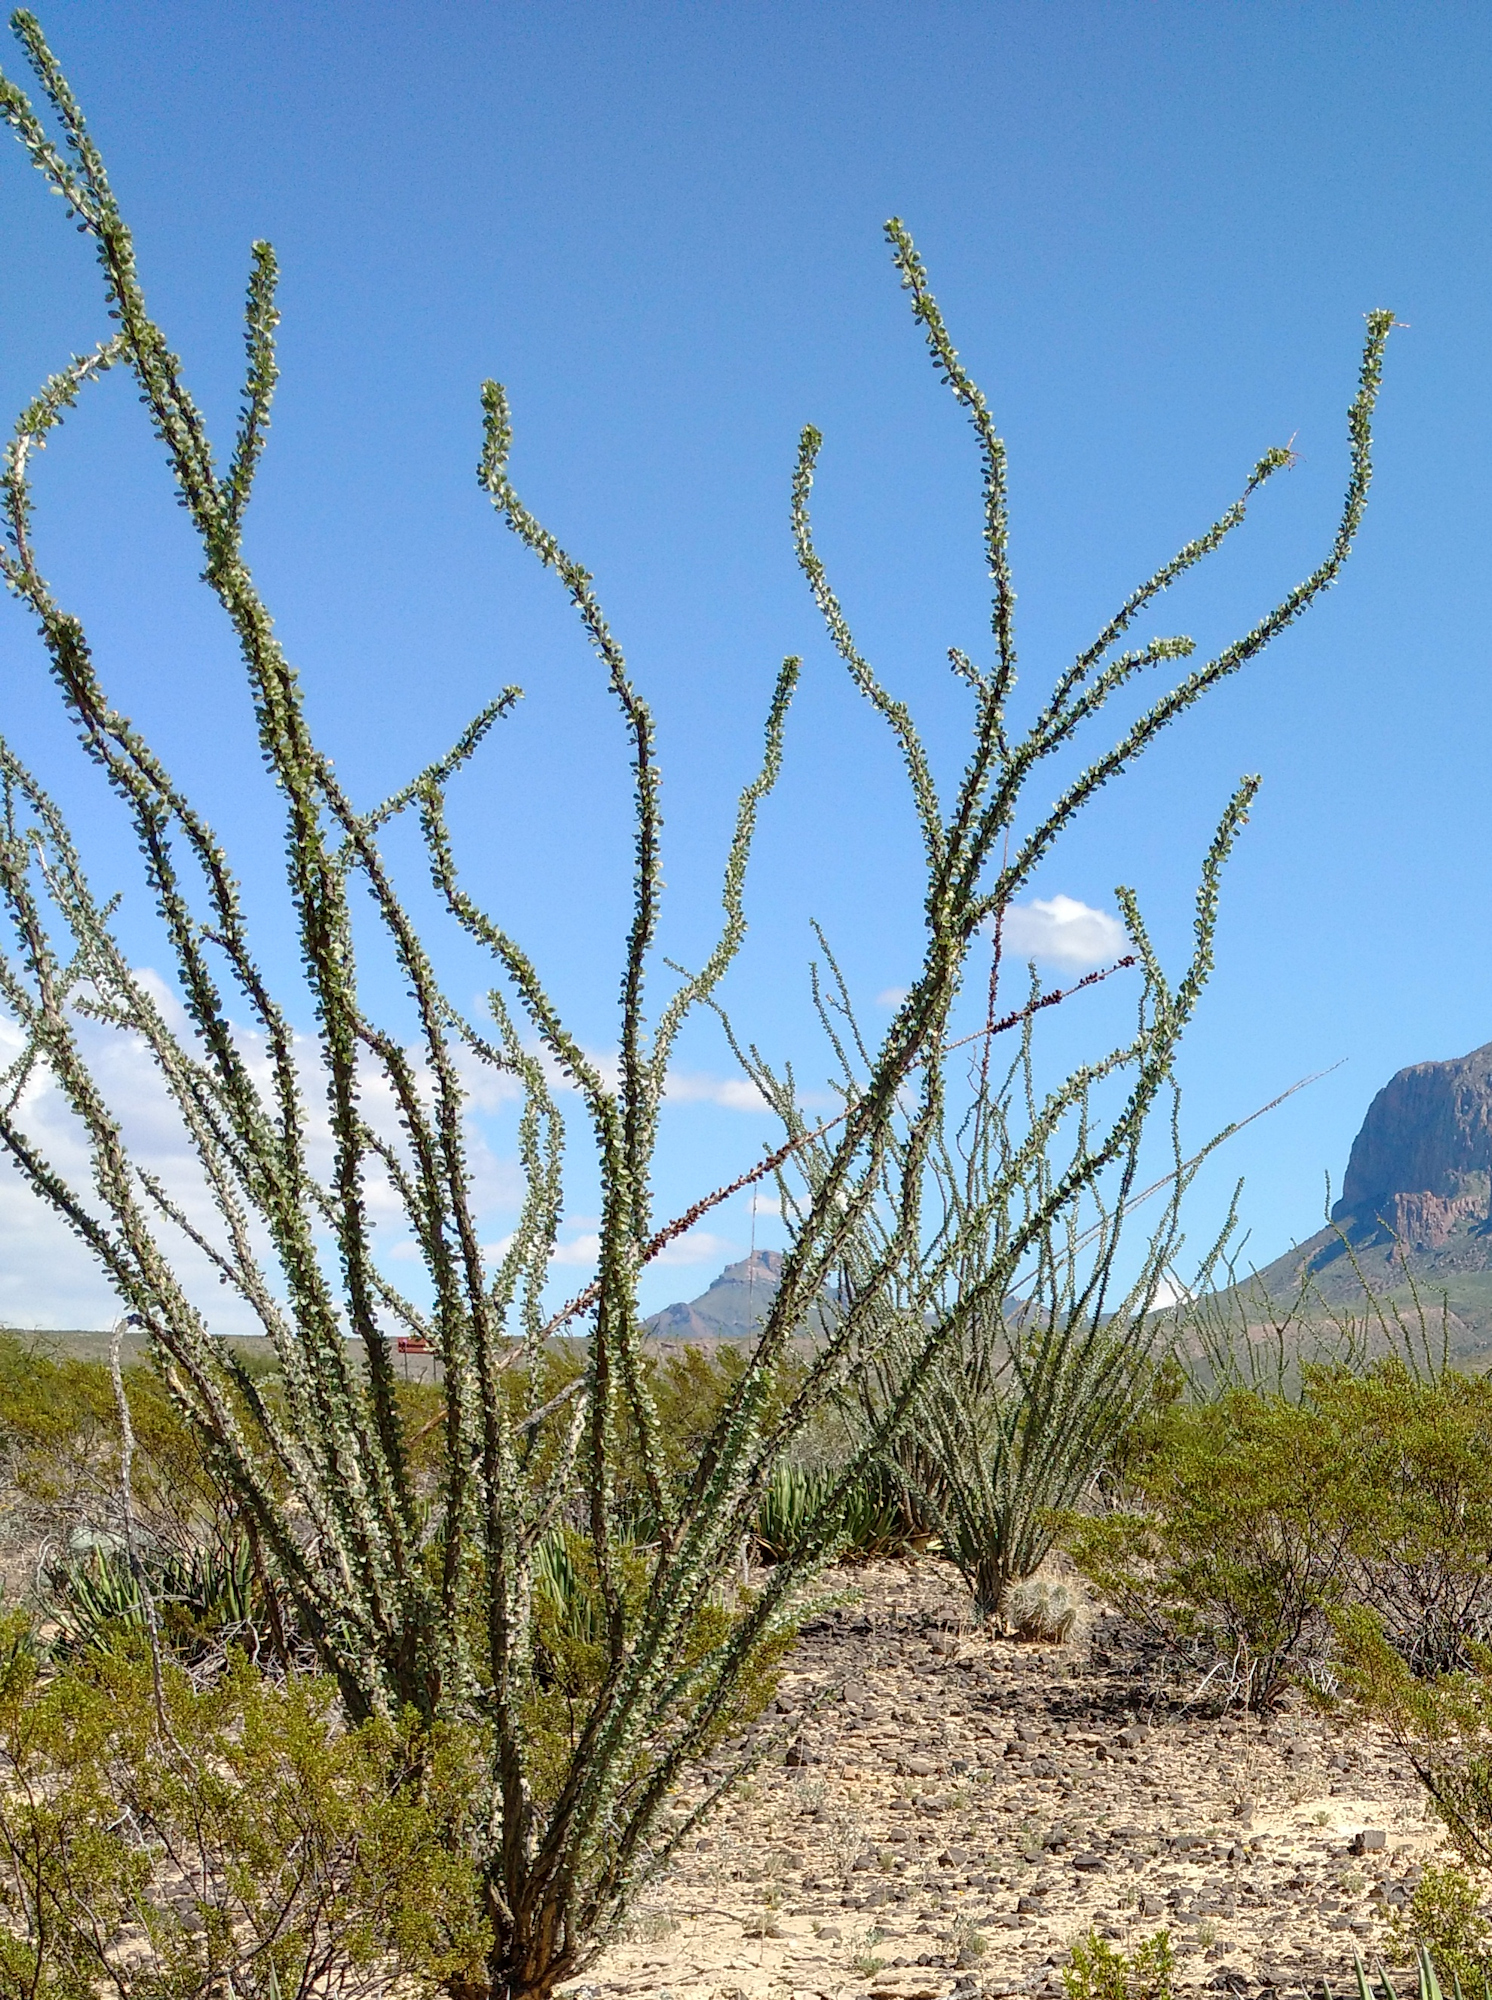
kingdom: Plantae
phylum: Tracheophyta
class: Magnoliopsida
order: Ericales
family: Fouquieriaceae
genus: Fouquieria
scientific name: Fouquieria splendens
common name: Vine-cactus
